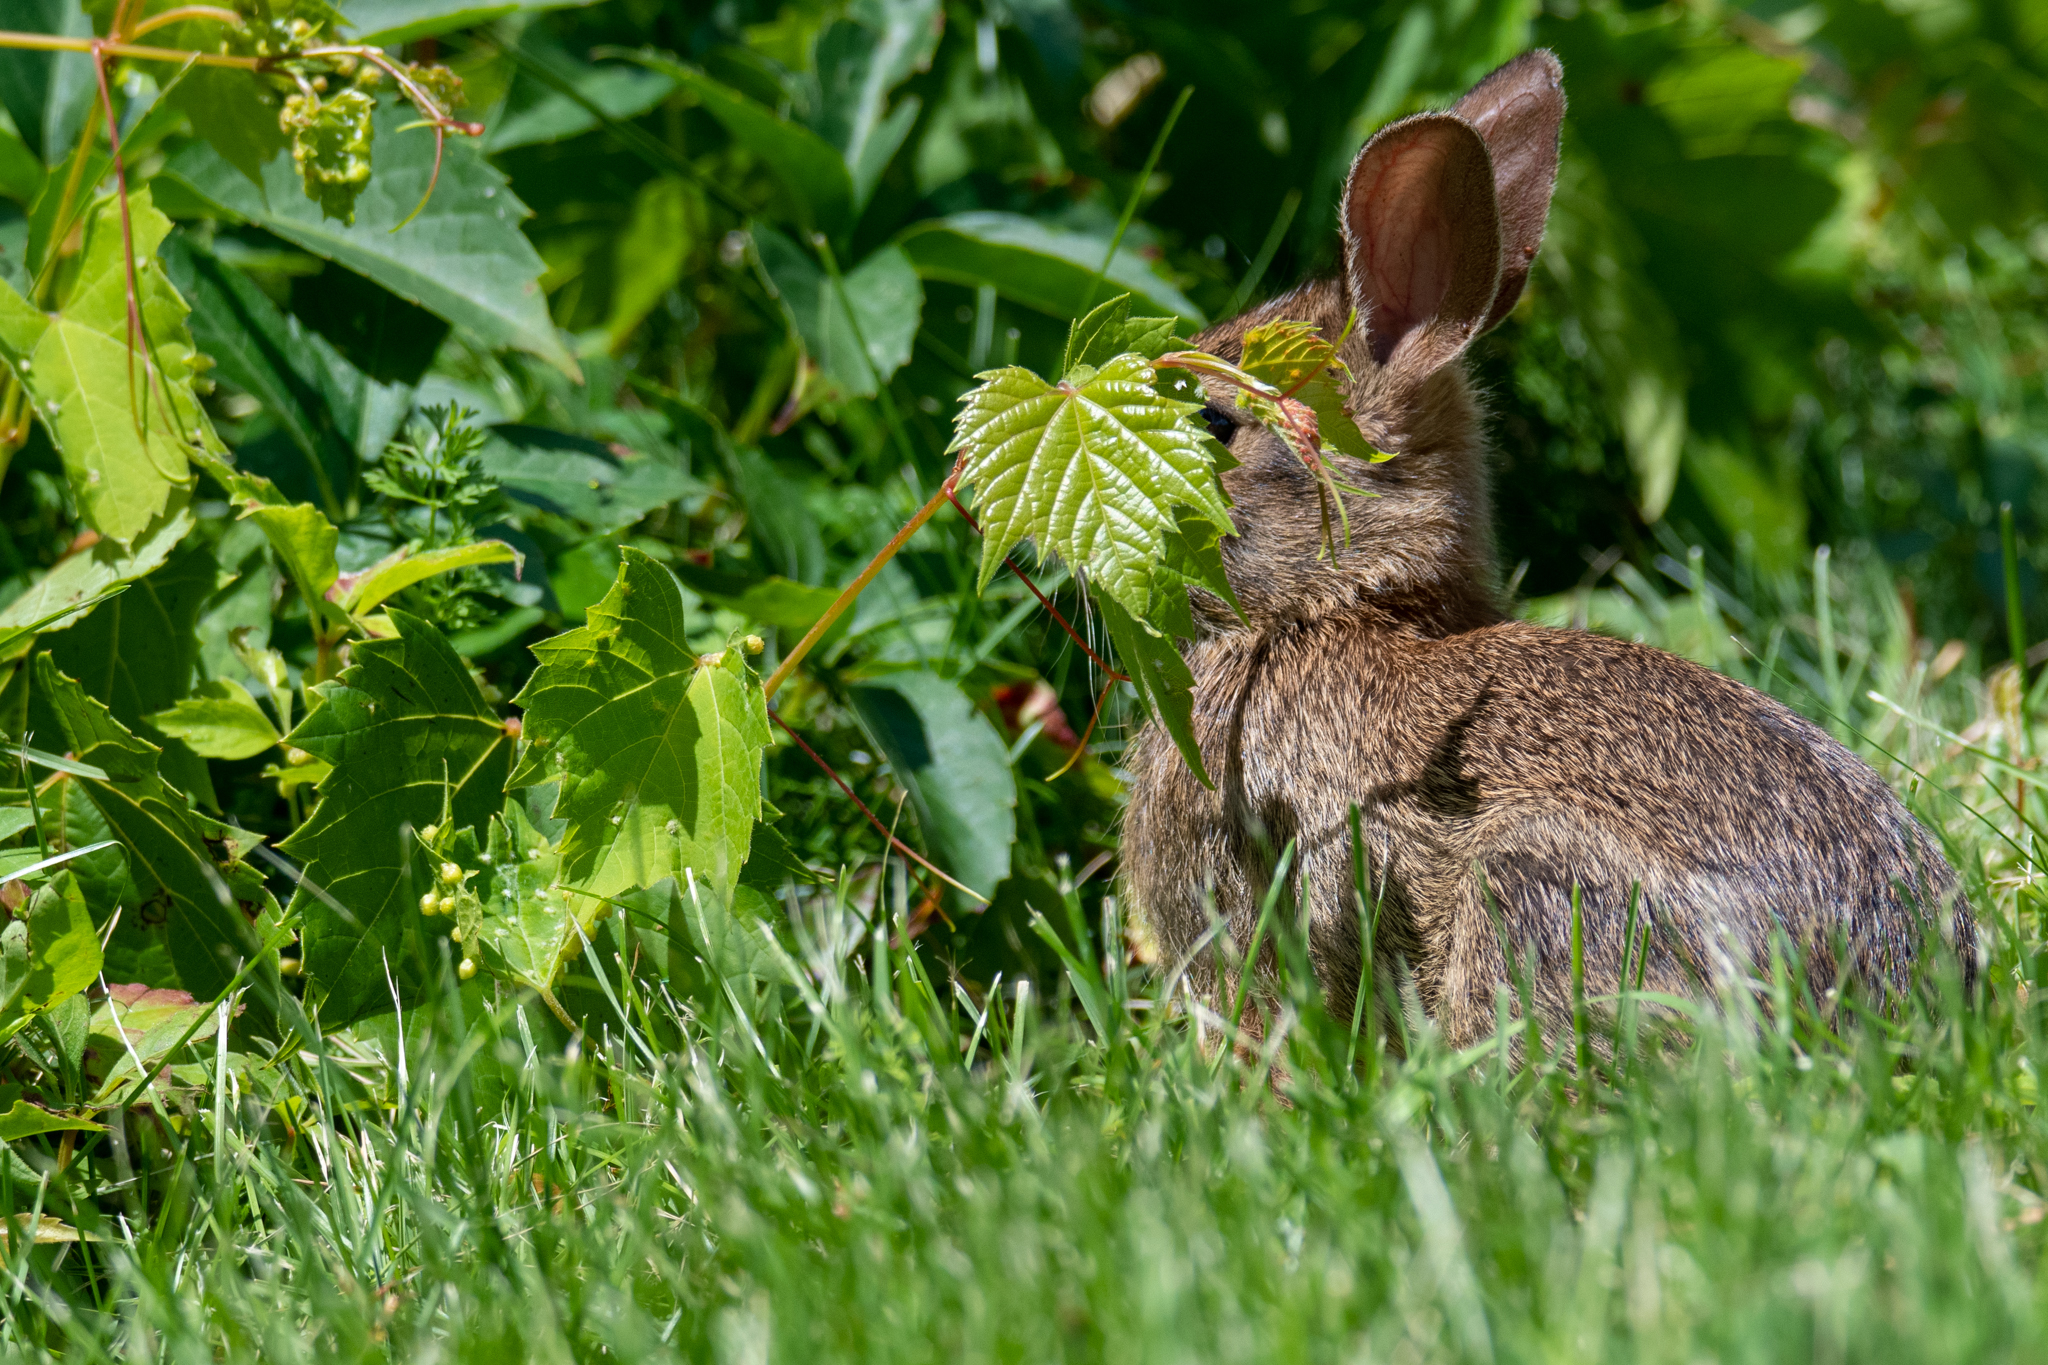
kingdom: Animalia
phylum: Chordata
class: Mammalia
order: Lagomorpha
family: Leporidae
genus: Sylvilagus
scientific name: Sylvilagus floridanus
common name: Eastern cottontail
